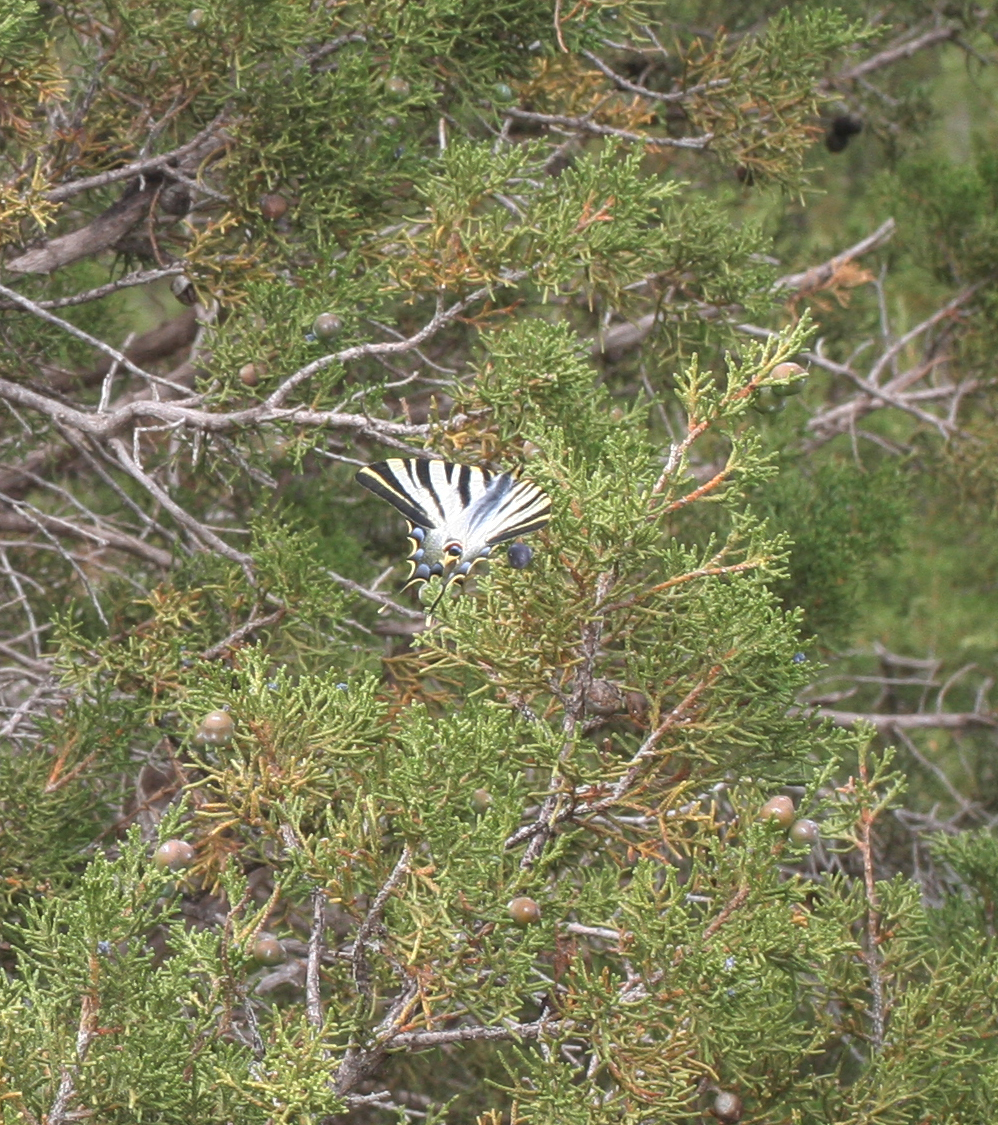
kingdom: Animalia
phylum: Arthropoda
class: Insecta
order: Lepidoptera
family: Papilionidae
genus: Iphiclides
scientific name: Iphiclides feisthamelii
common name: Iberian scarce swallowtail
